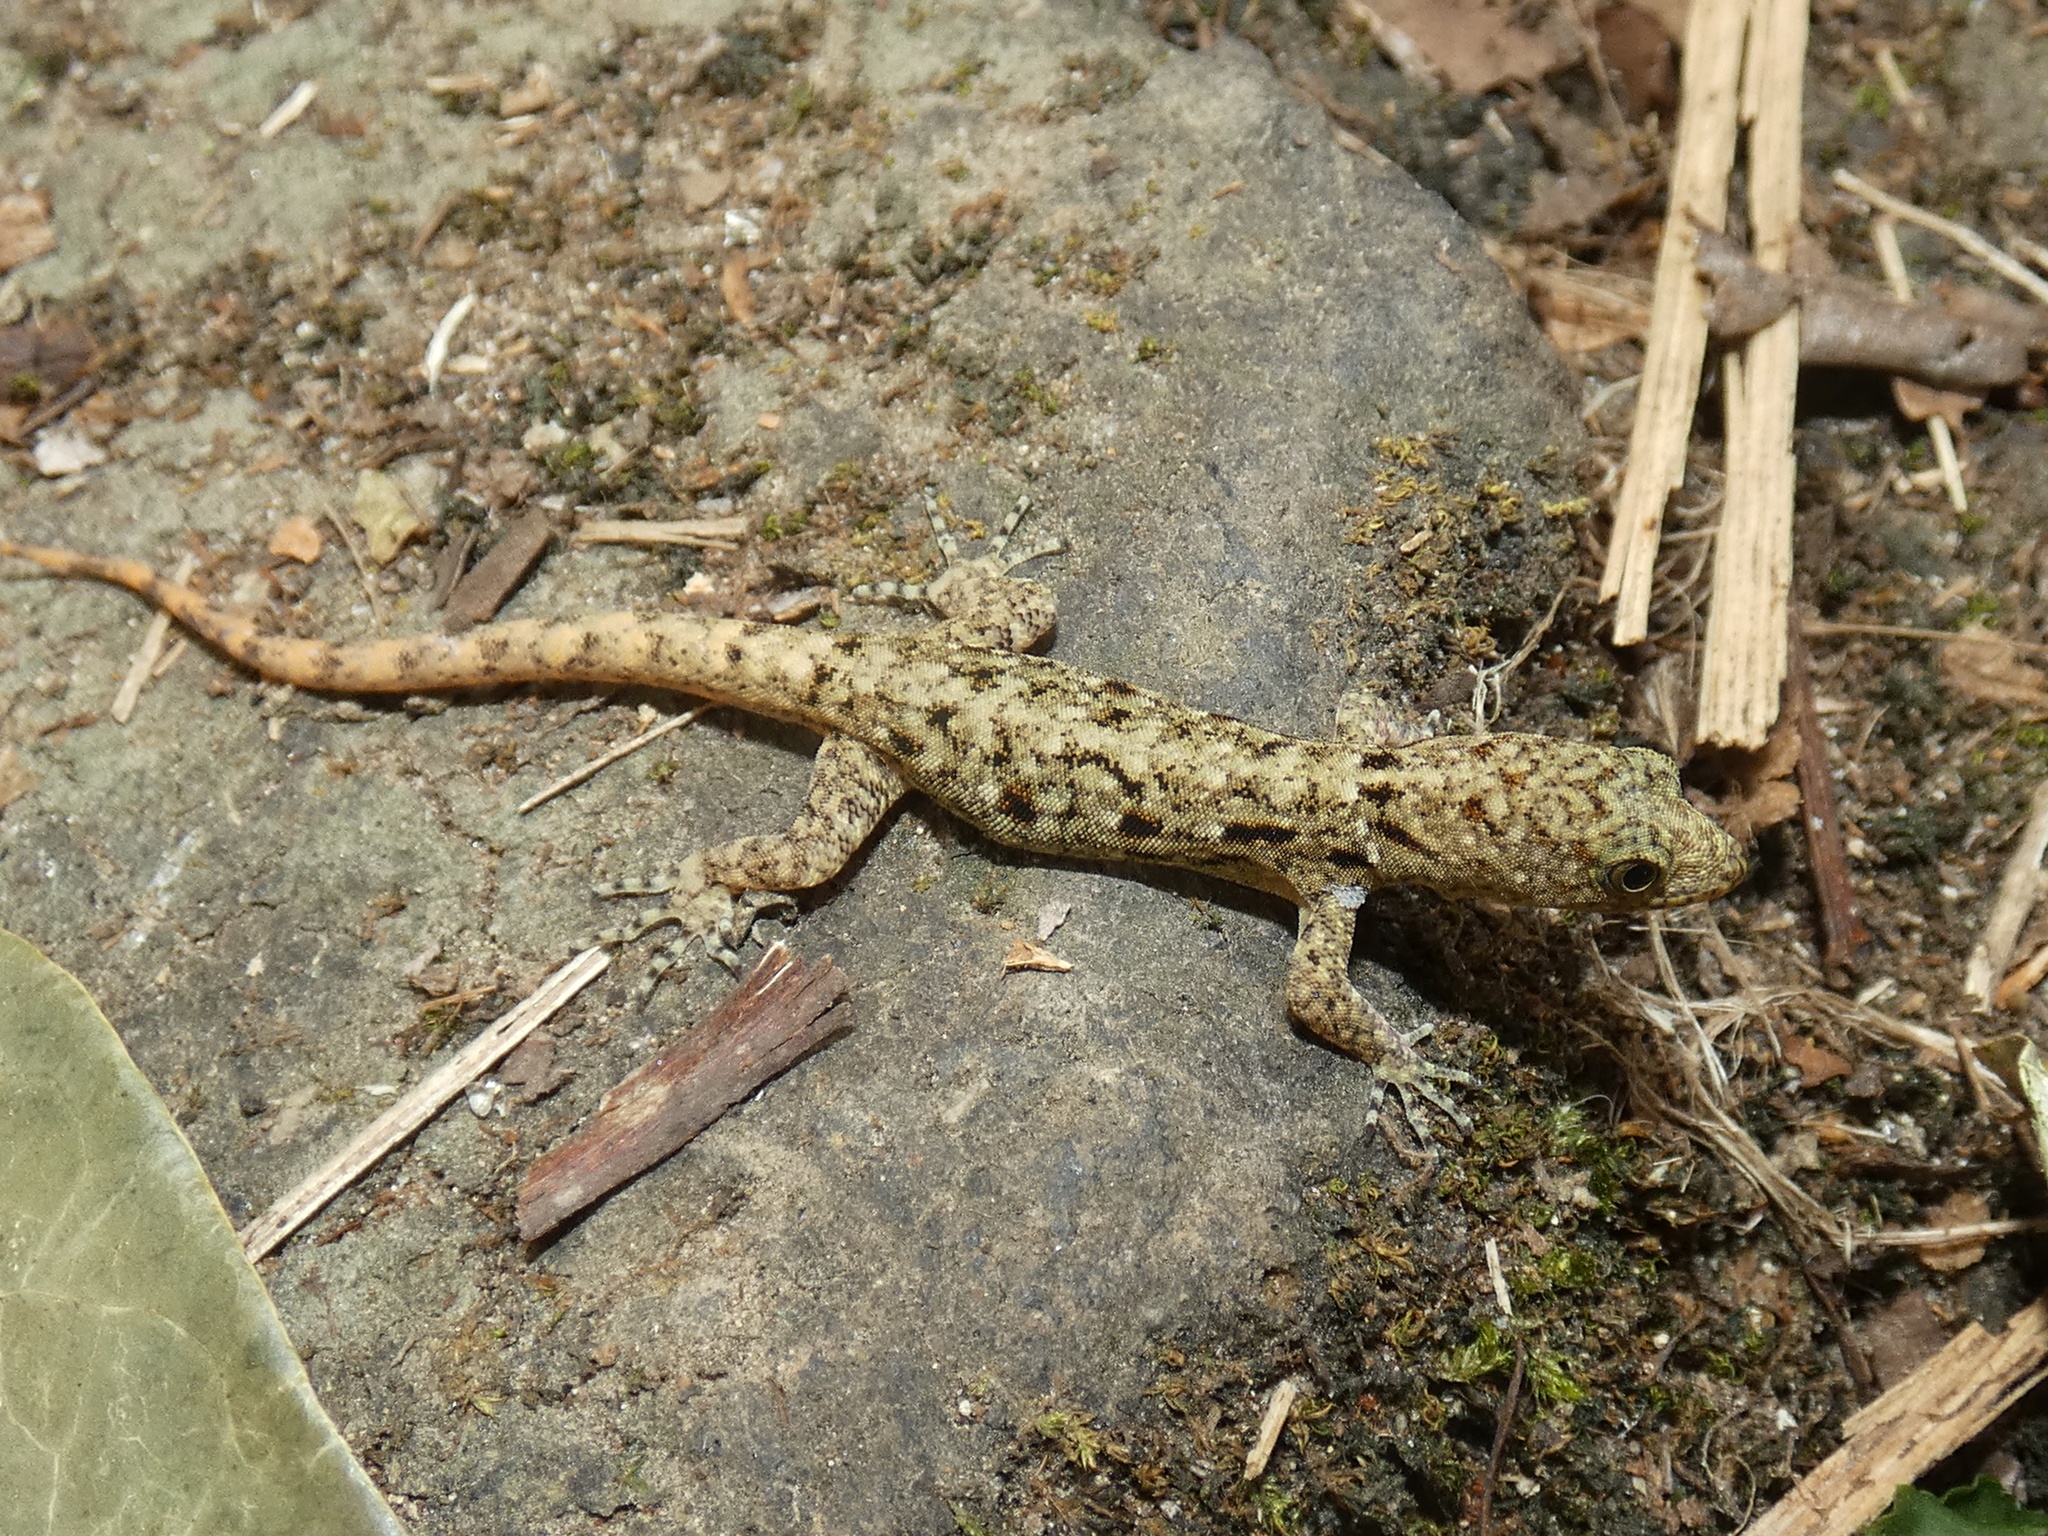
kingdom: Animalia
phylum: Chordata
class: Squamata
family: Sphaerodactylidae
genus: Gonatodes
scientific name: Gonatodes albogularis
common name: Yellow-headed gecko
